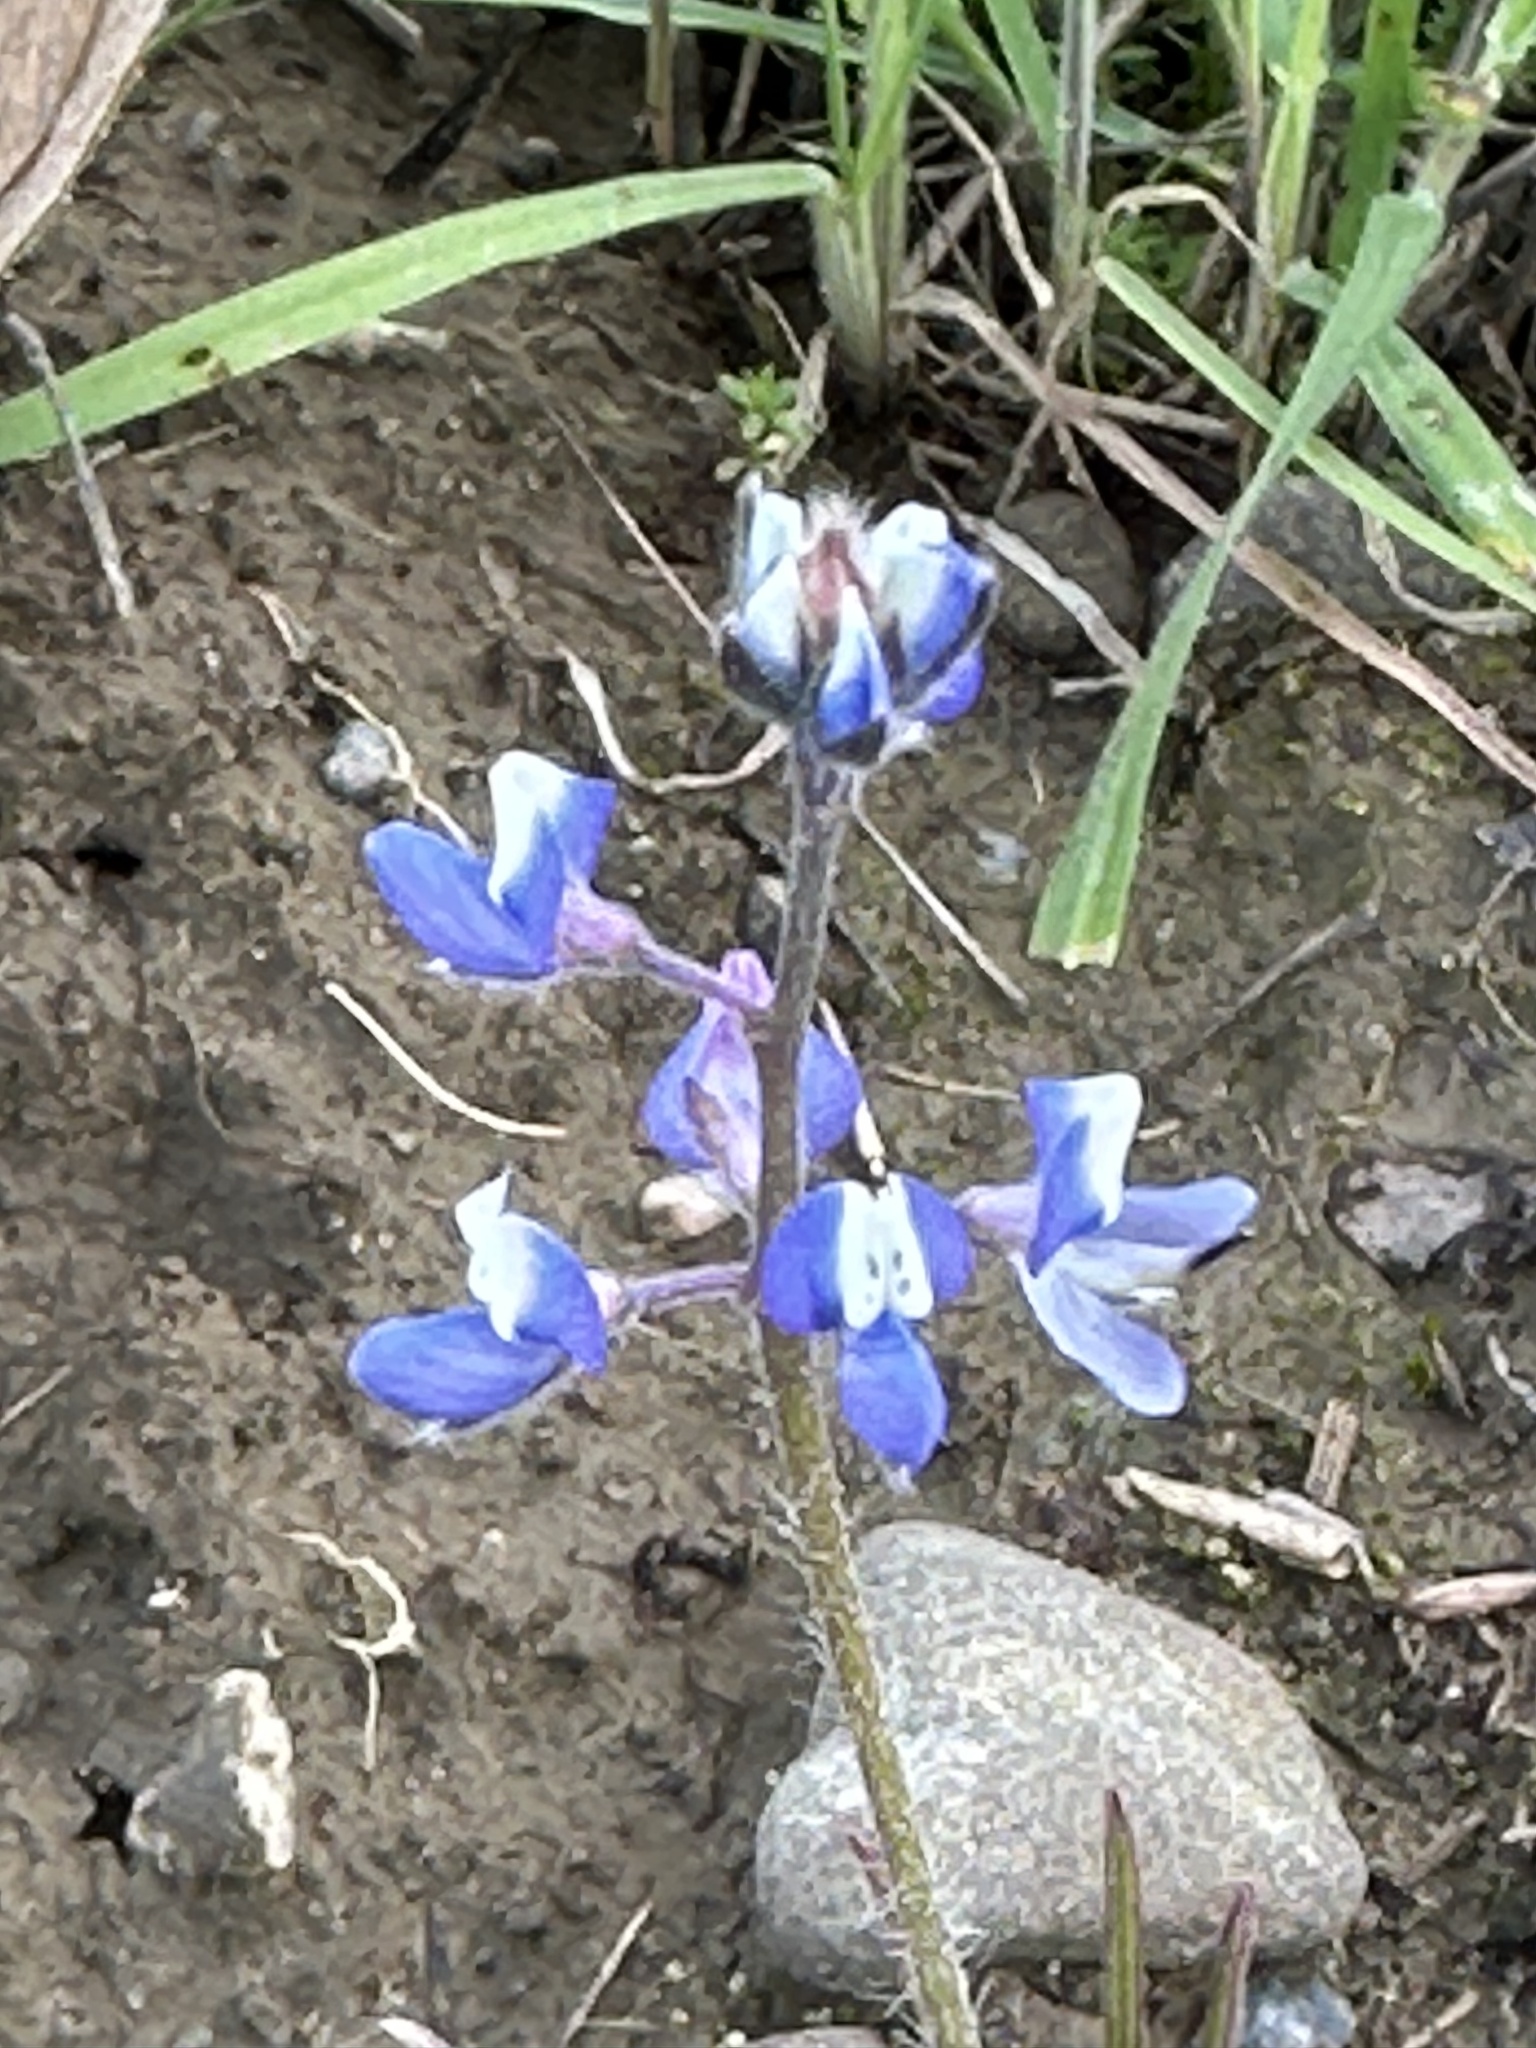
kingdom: Plantae
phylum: Tracheophyta
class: Magnoliopsida
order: Fabales
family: Fabaceae
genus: Lupinus
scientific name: Lupinus bicolor
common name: Miniature lupine
